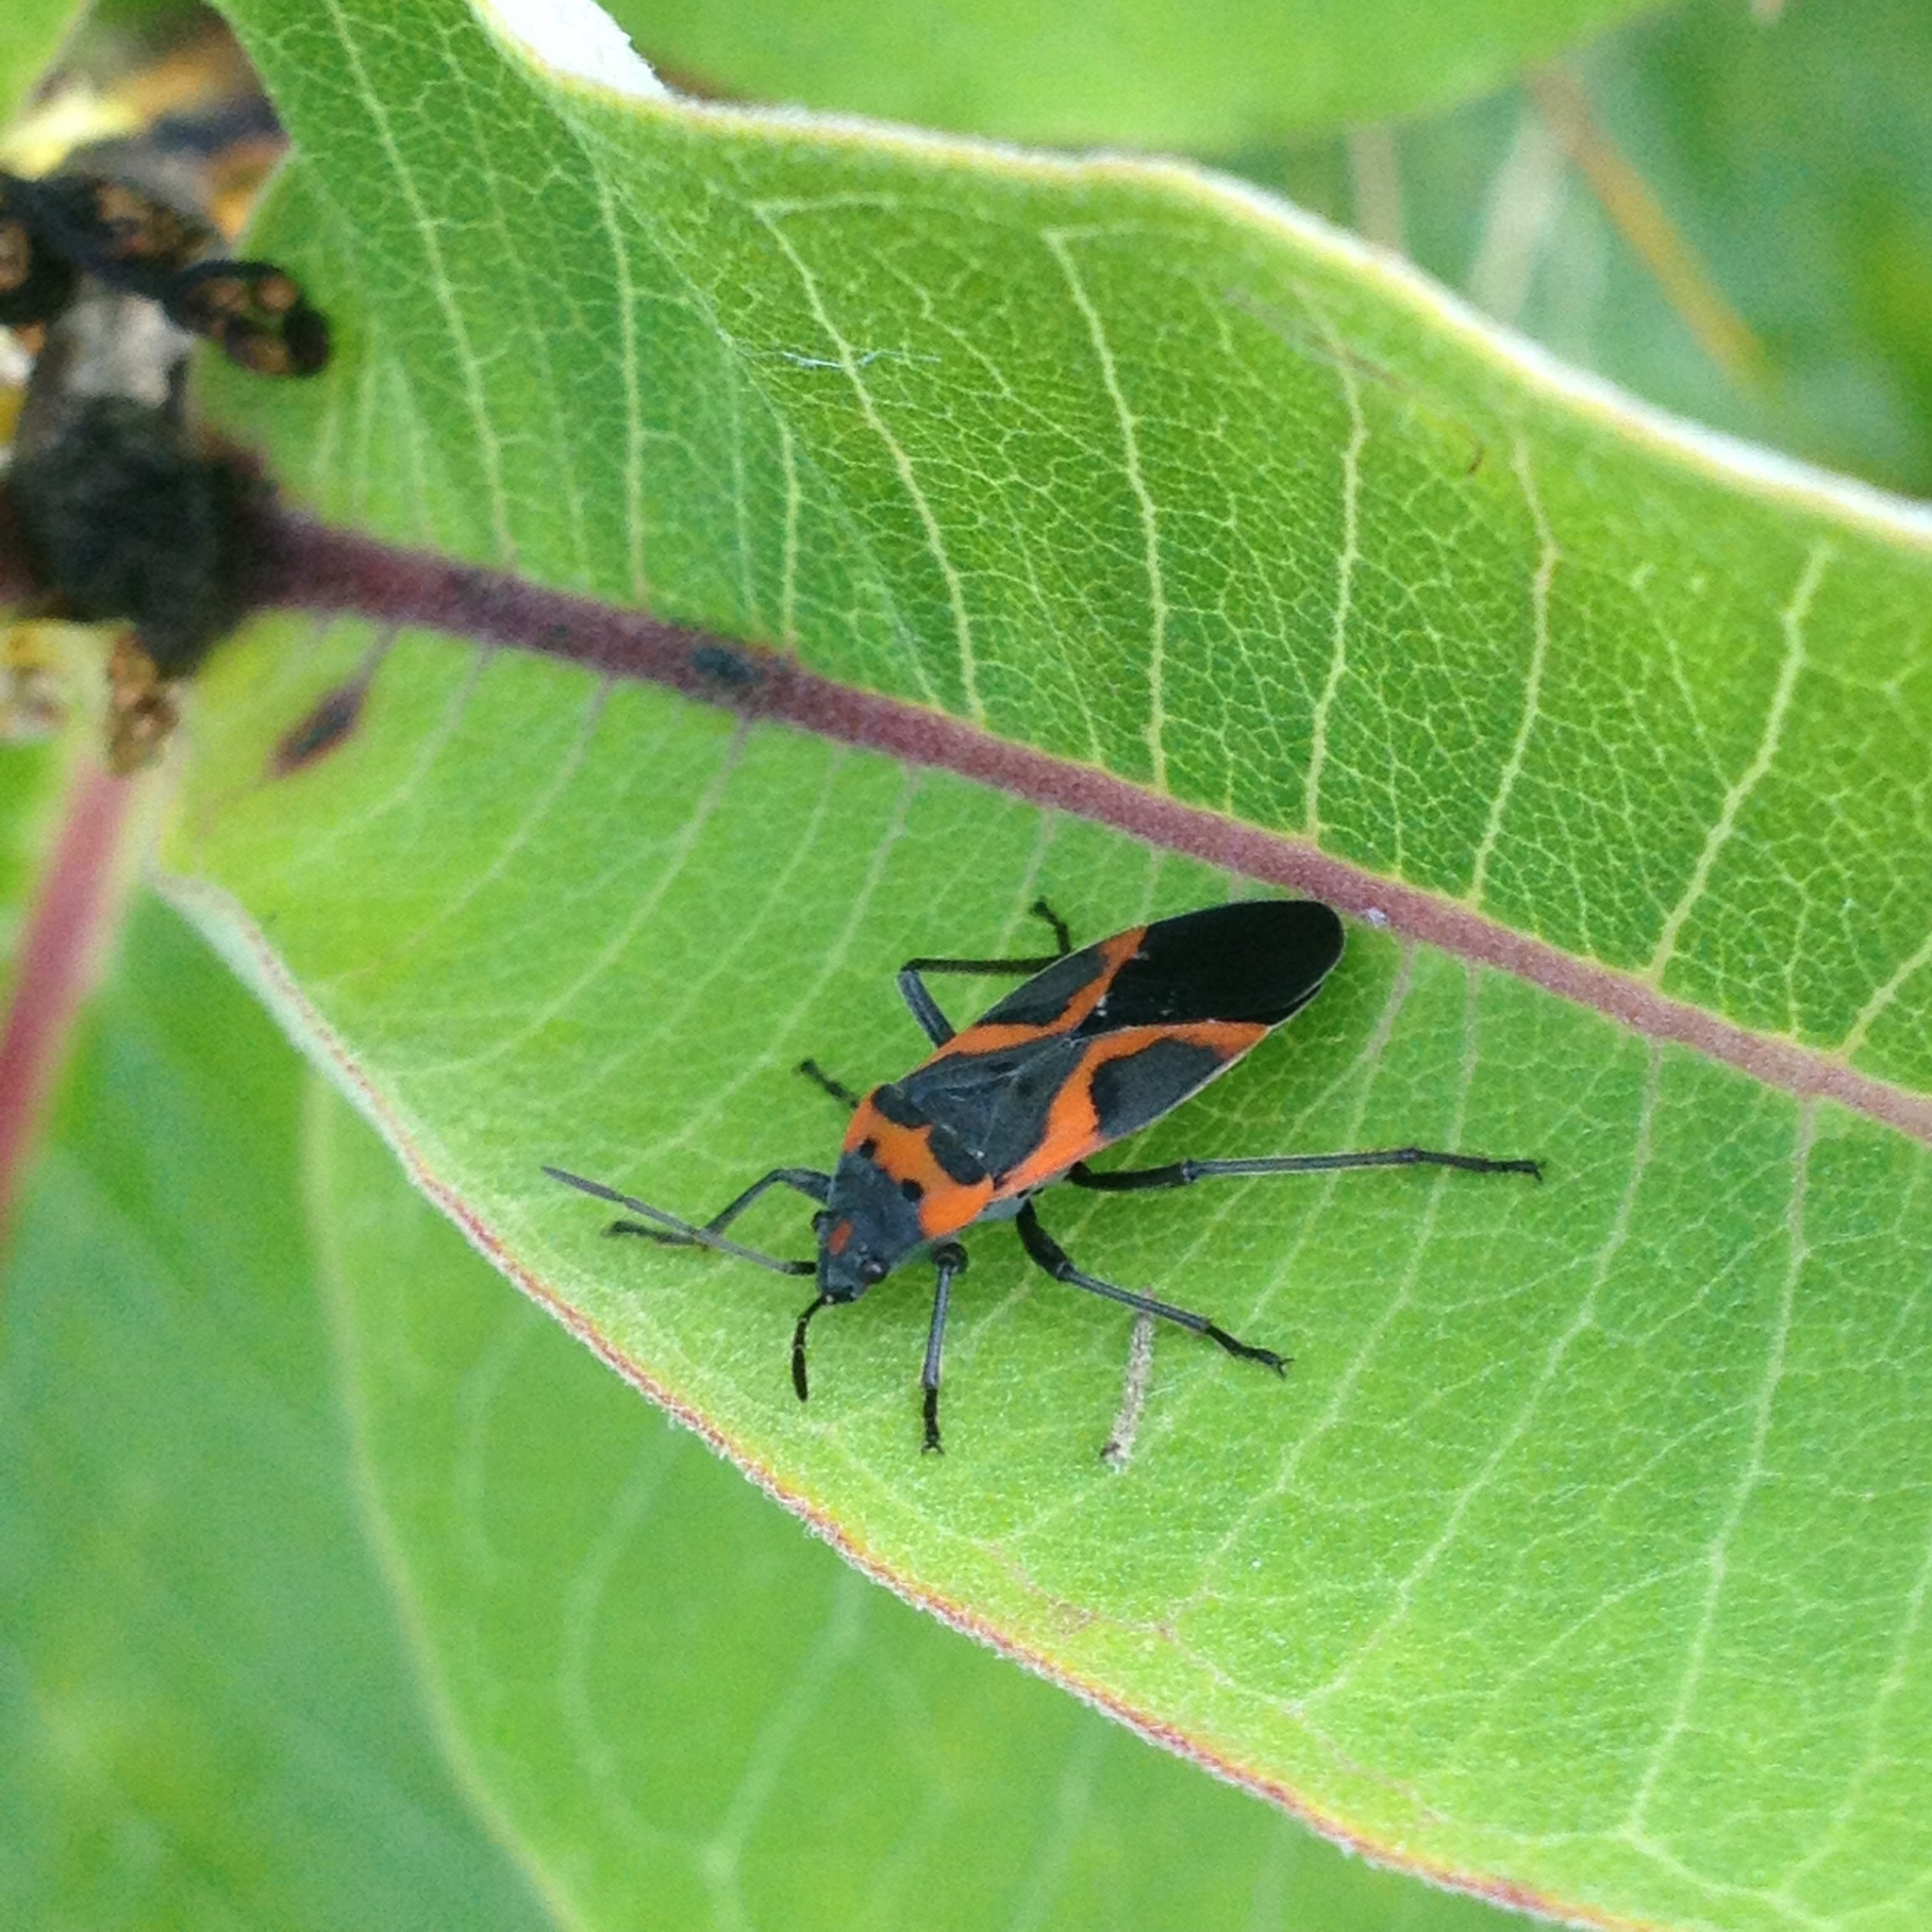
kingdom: Animalia
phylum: Arthropoda
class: Insecta
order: Hemiptera
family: Lygaeidae
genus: Lygaeus
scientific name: Lygaeus kalmii
